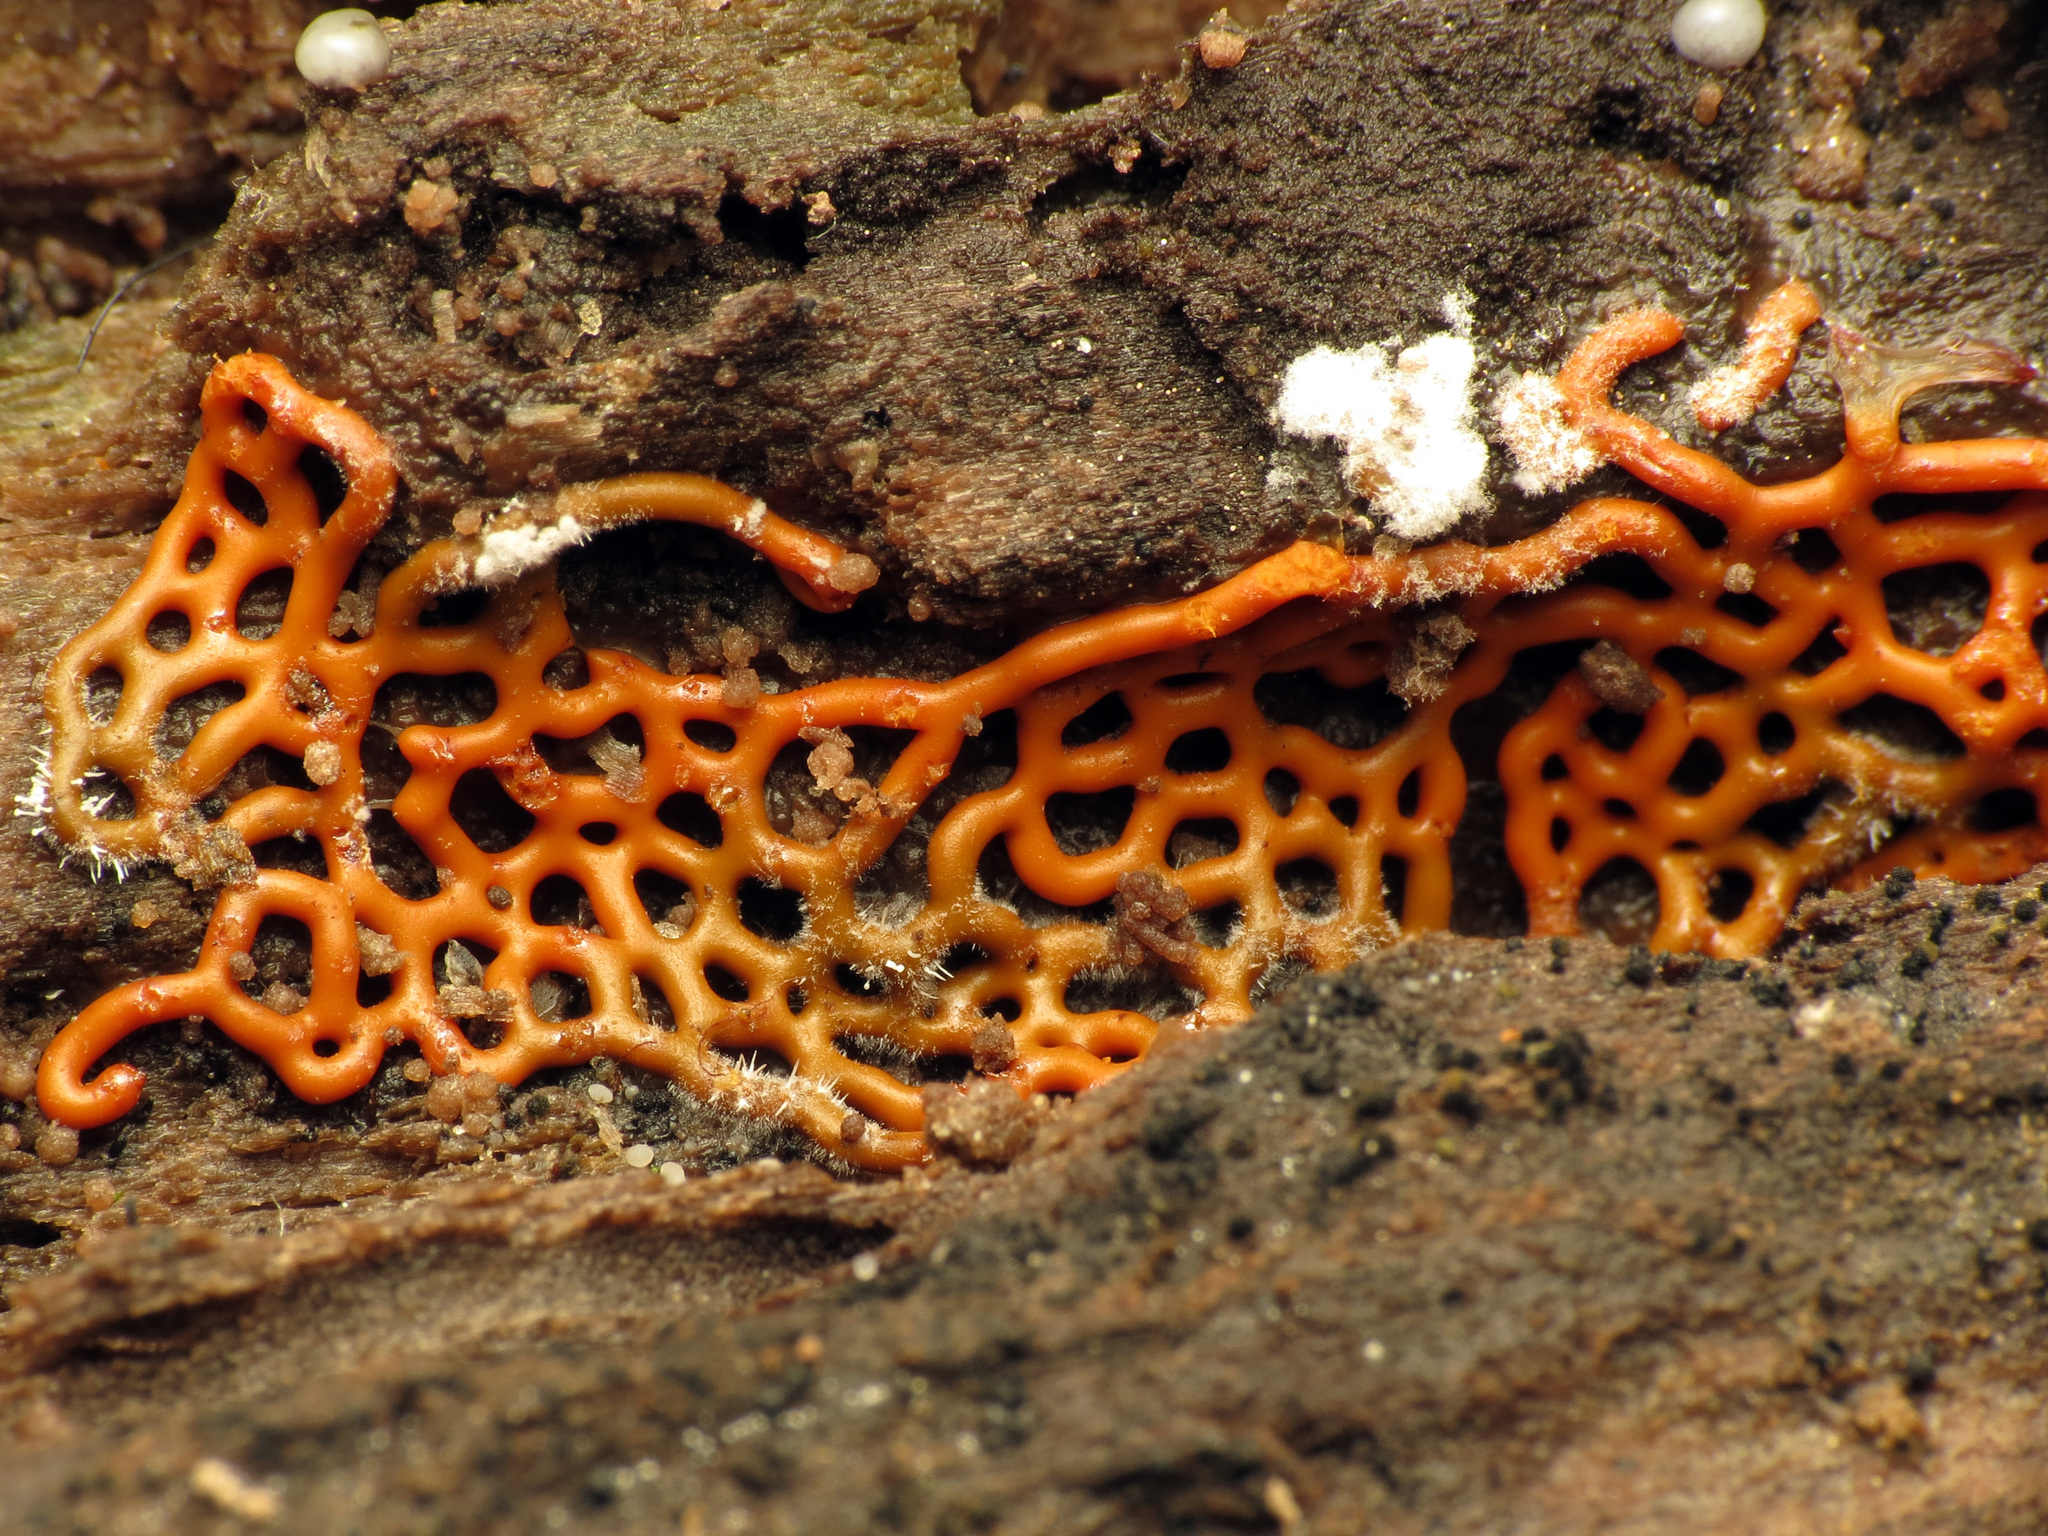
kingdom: Protozoa
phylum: Mycetozoa
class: Myxomycetes
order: Trichiales
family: Arcyriaceae
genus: Hemitrichia
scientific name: Hemitrichia serpula
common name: Pretzel slime mold
